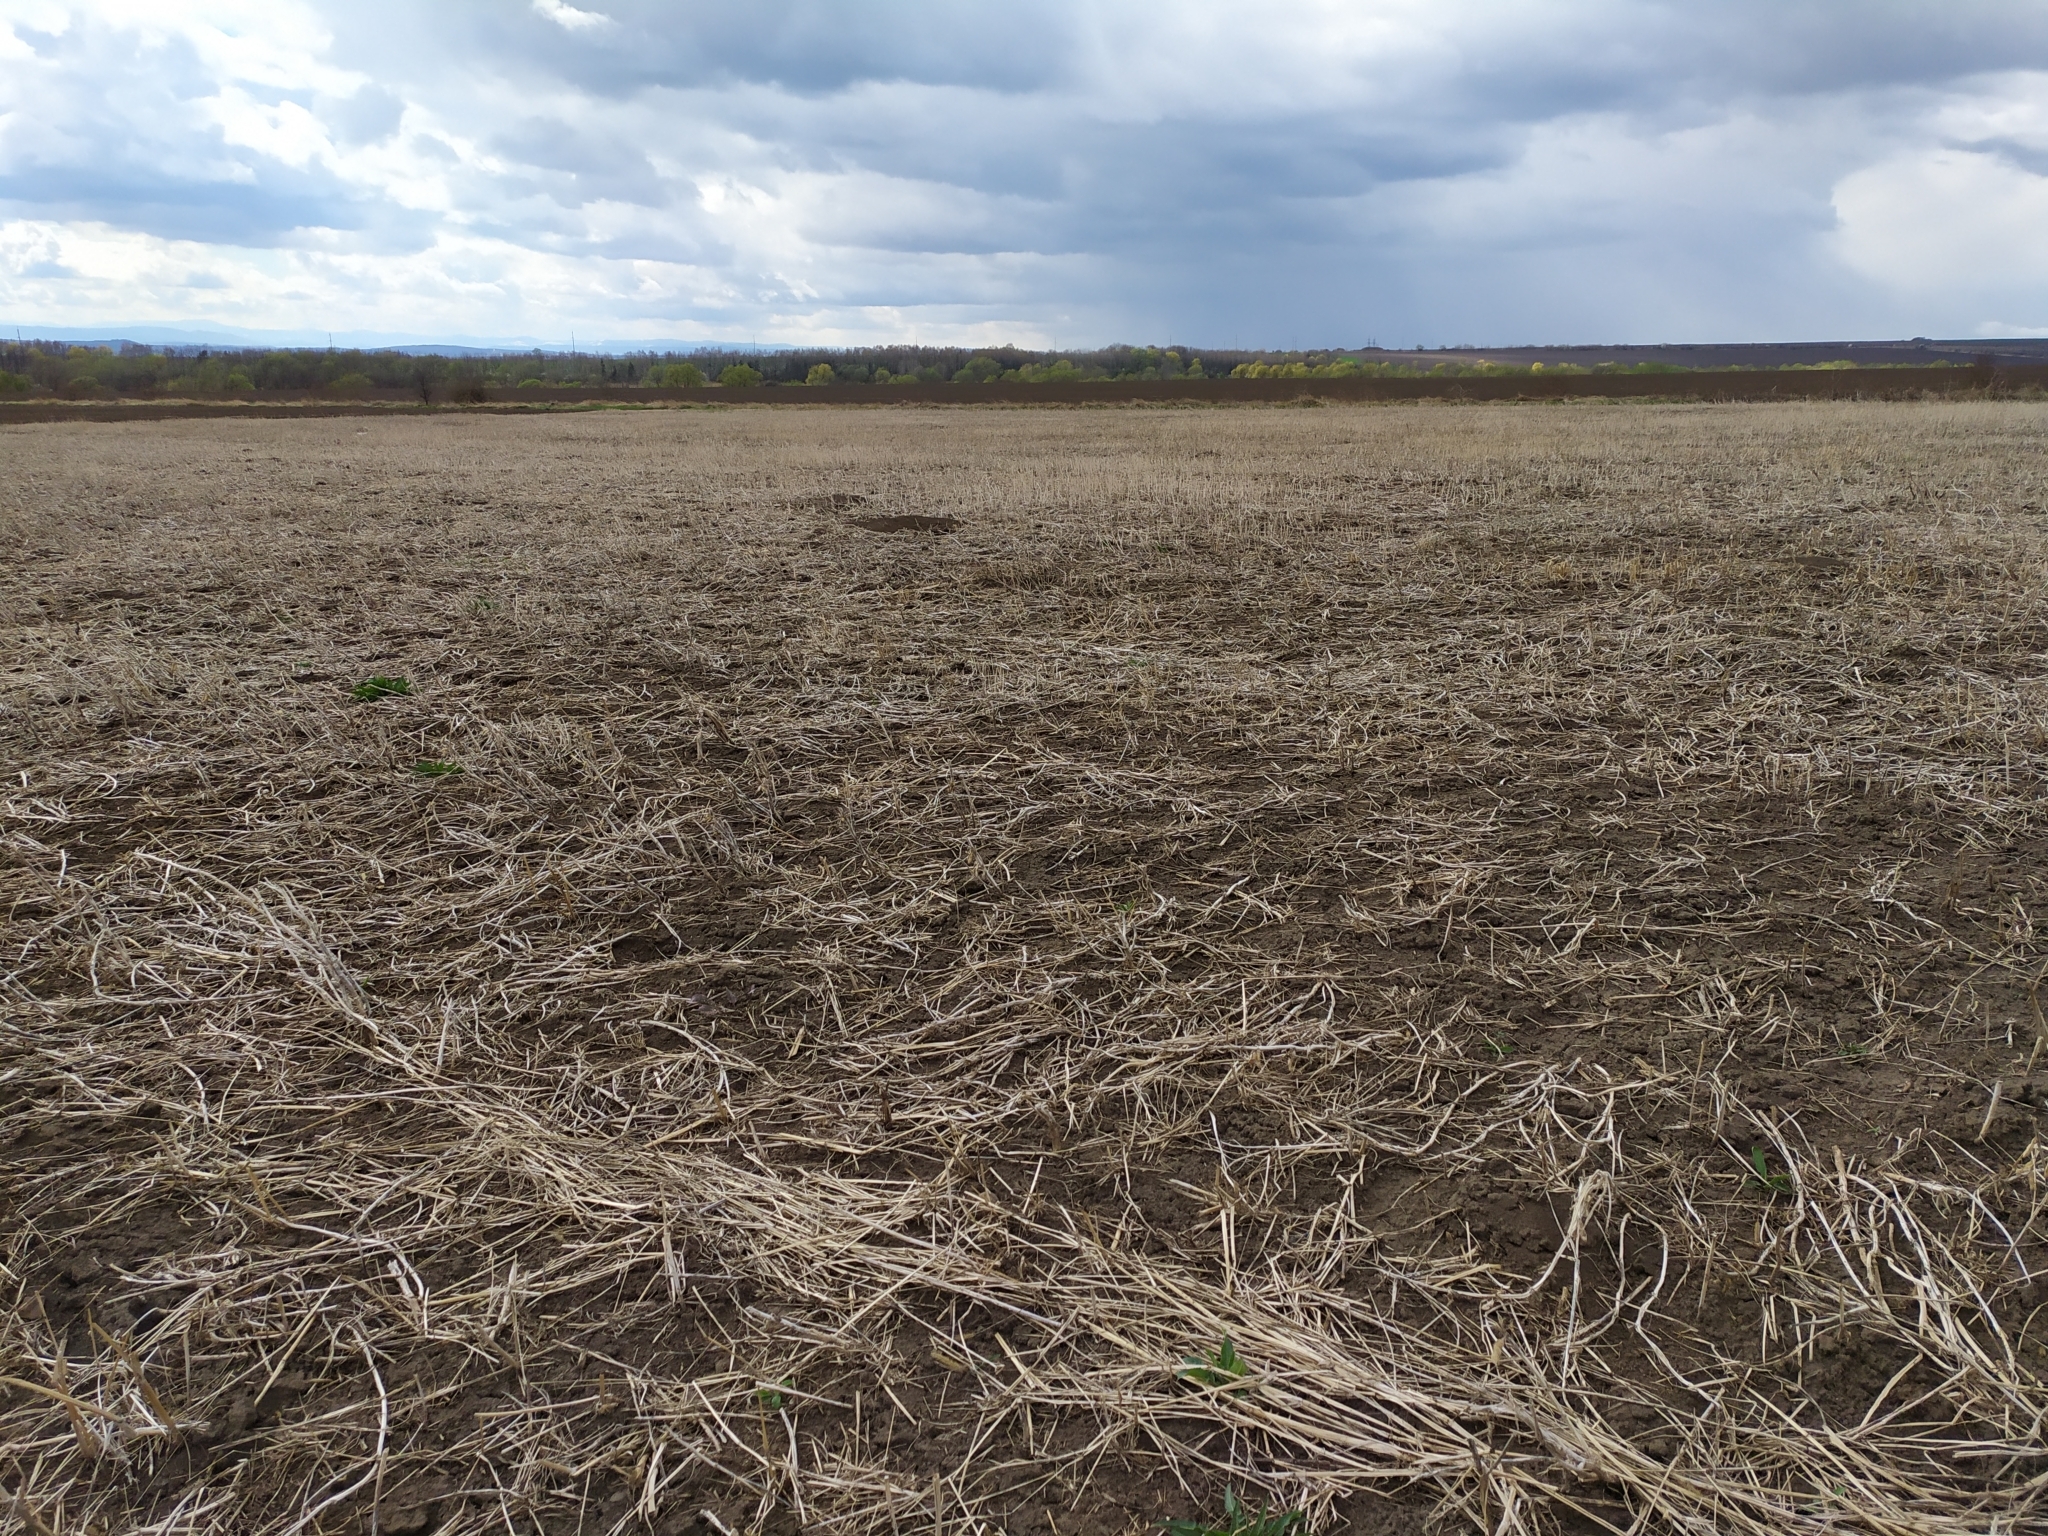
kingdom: Animalia
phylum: Chordata
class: Mammalia
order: Rodentia
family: Muridae
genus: Mus
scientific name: Mus spicilegus
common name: Mound-building mouse
